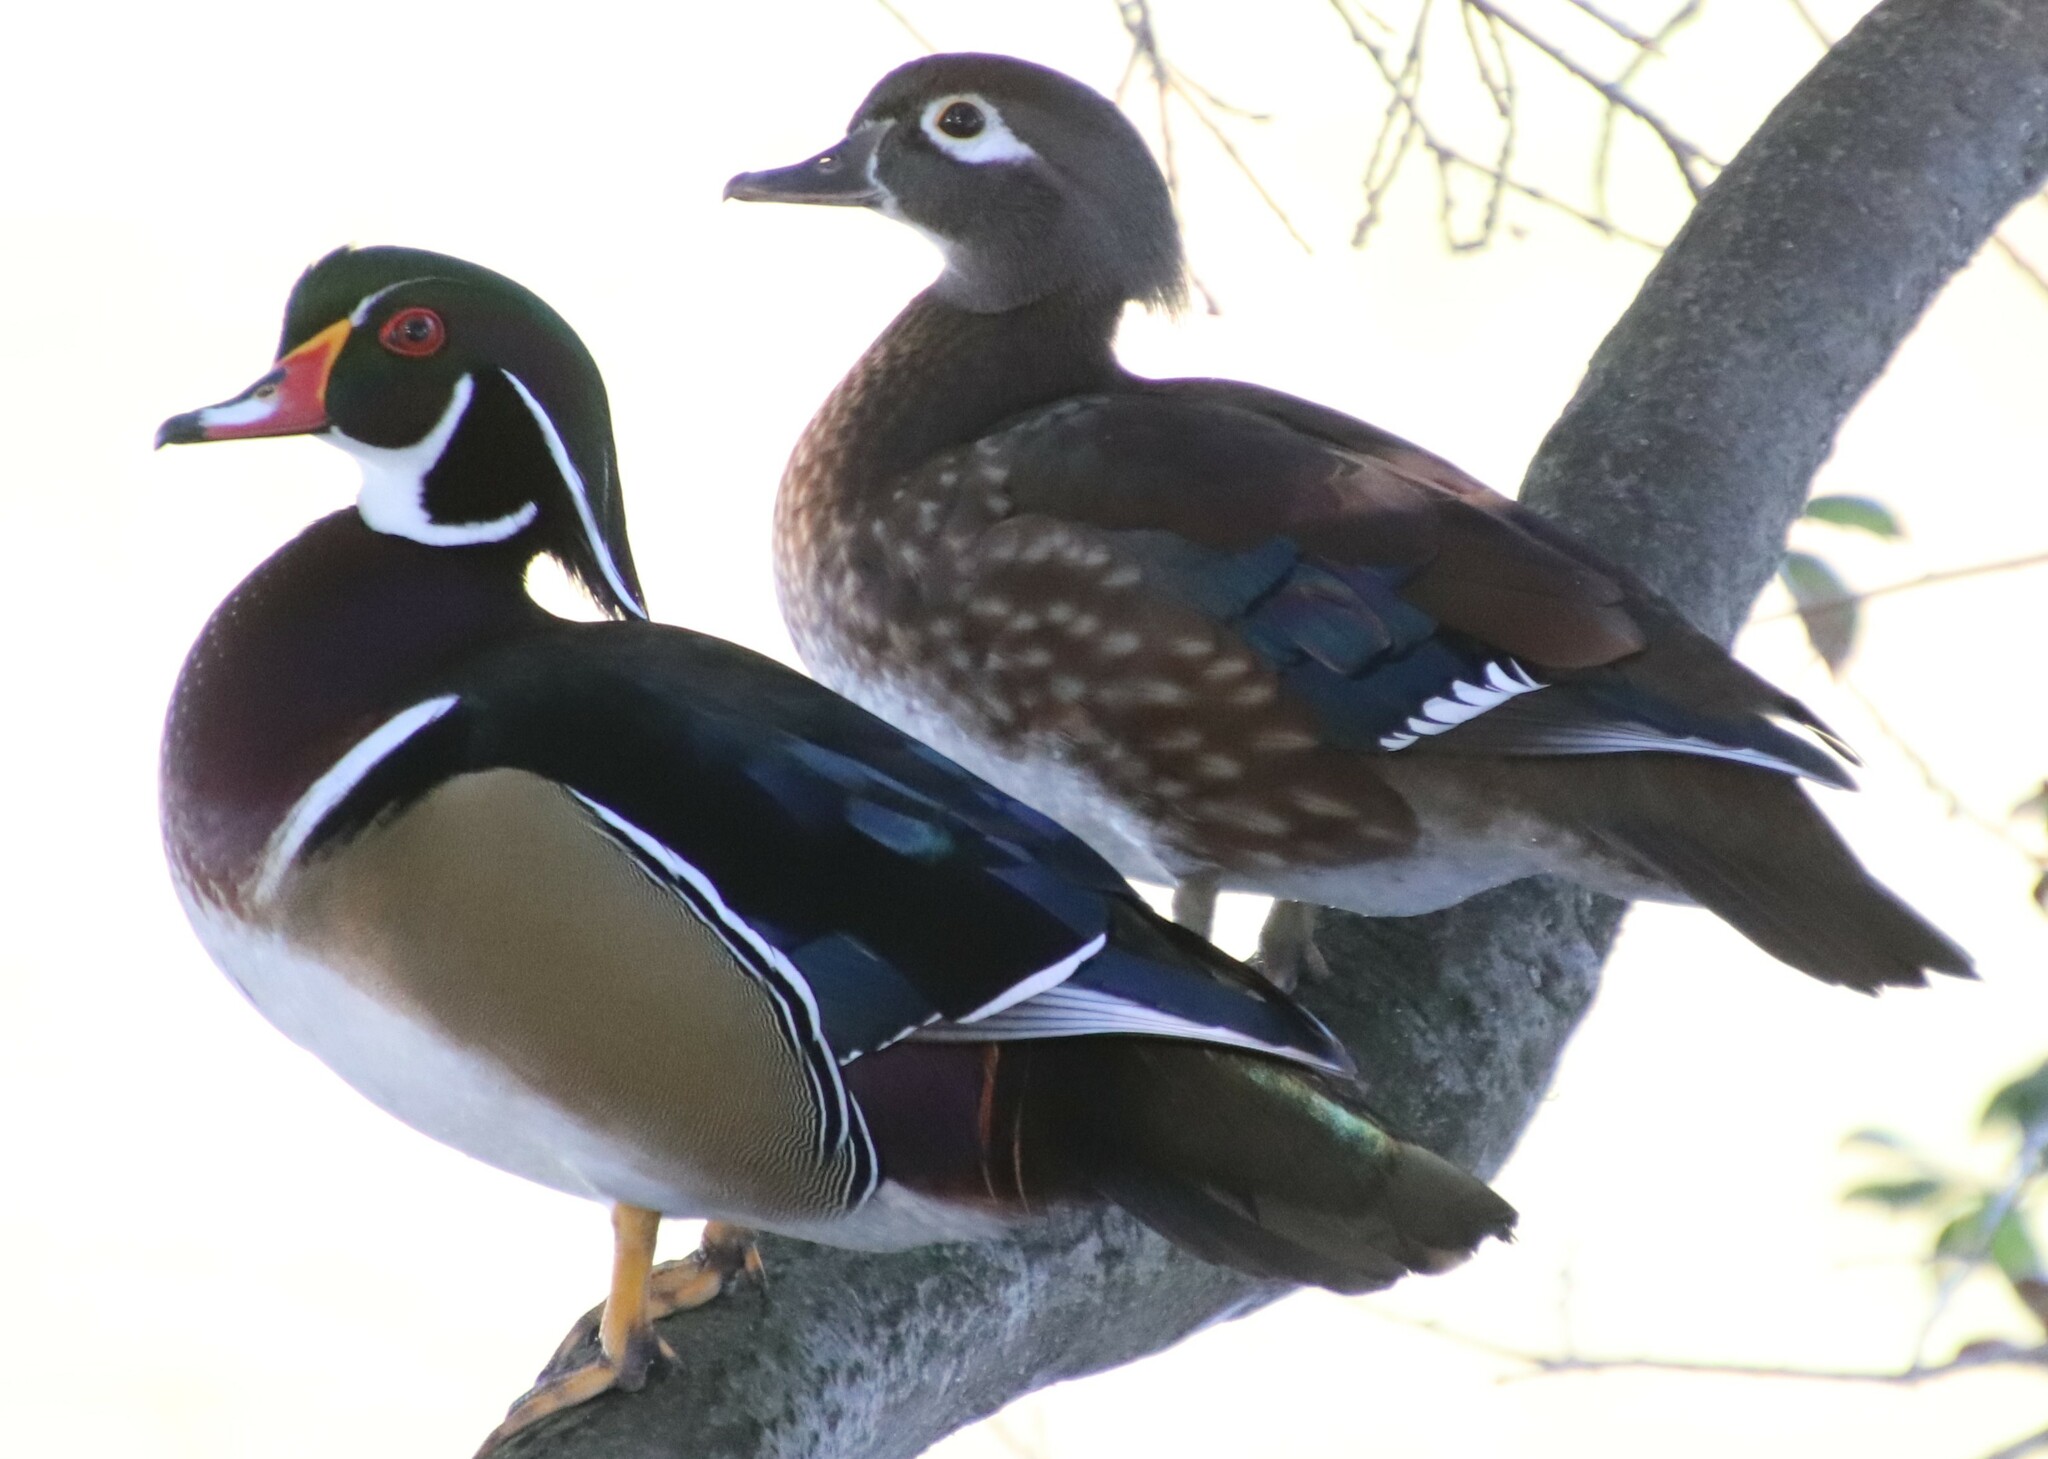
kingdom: Animalia
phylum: Chordata
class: Aves
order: Anseriformes
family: Anatidae
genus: Aix
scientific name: Aix sponsa
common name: Wood duck
